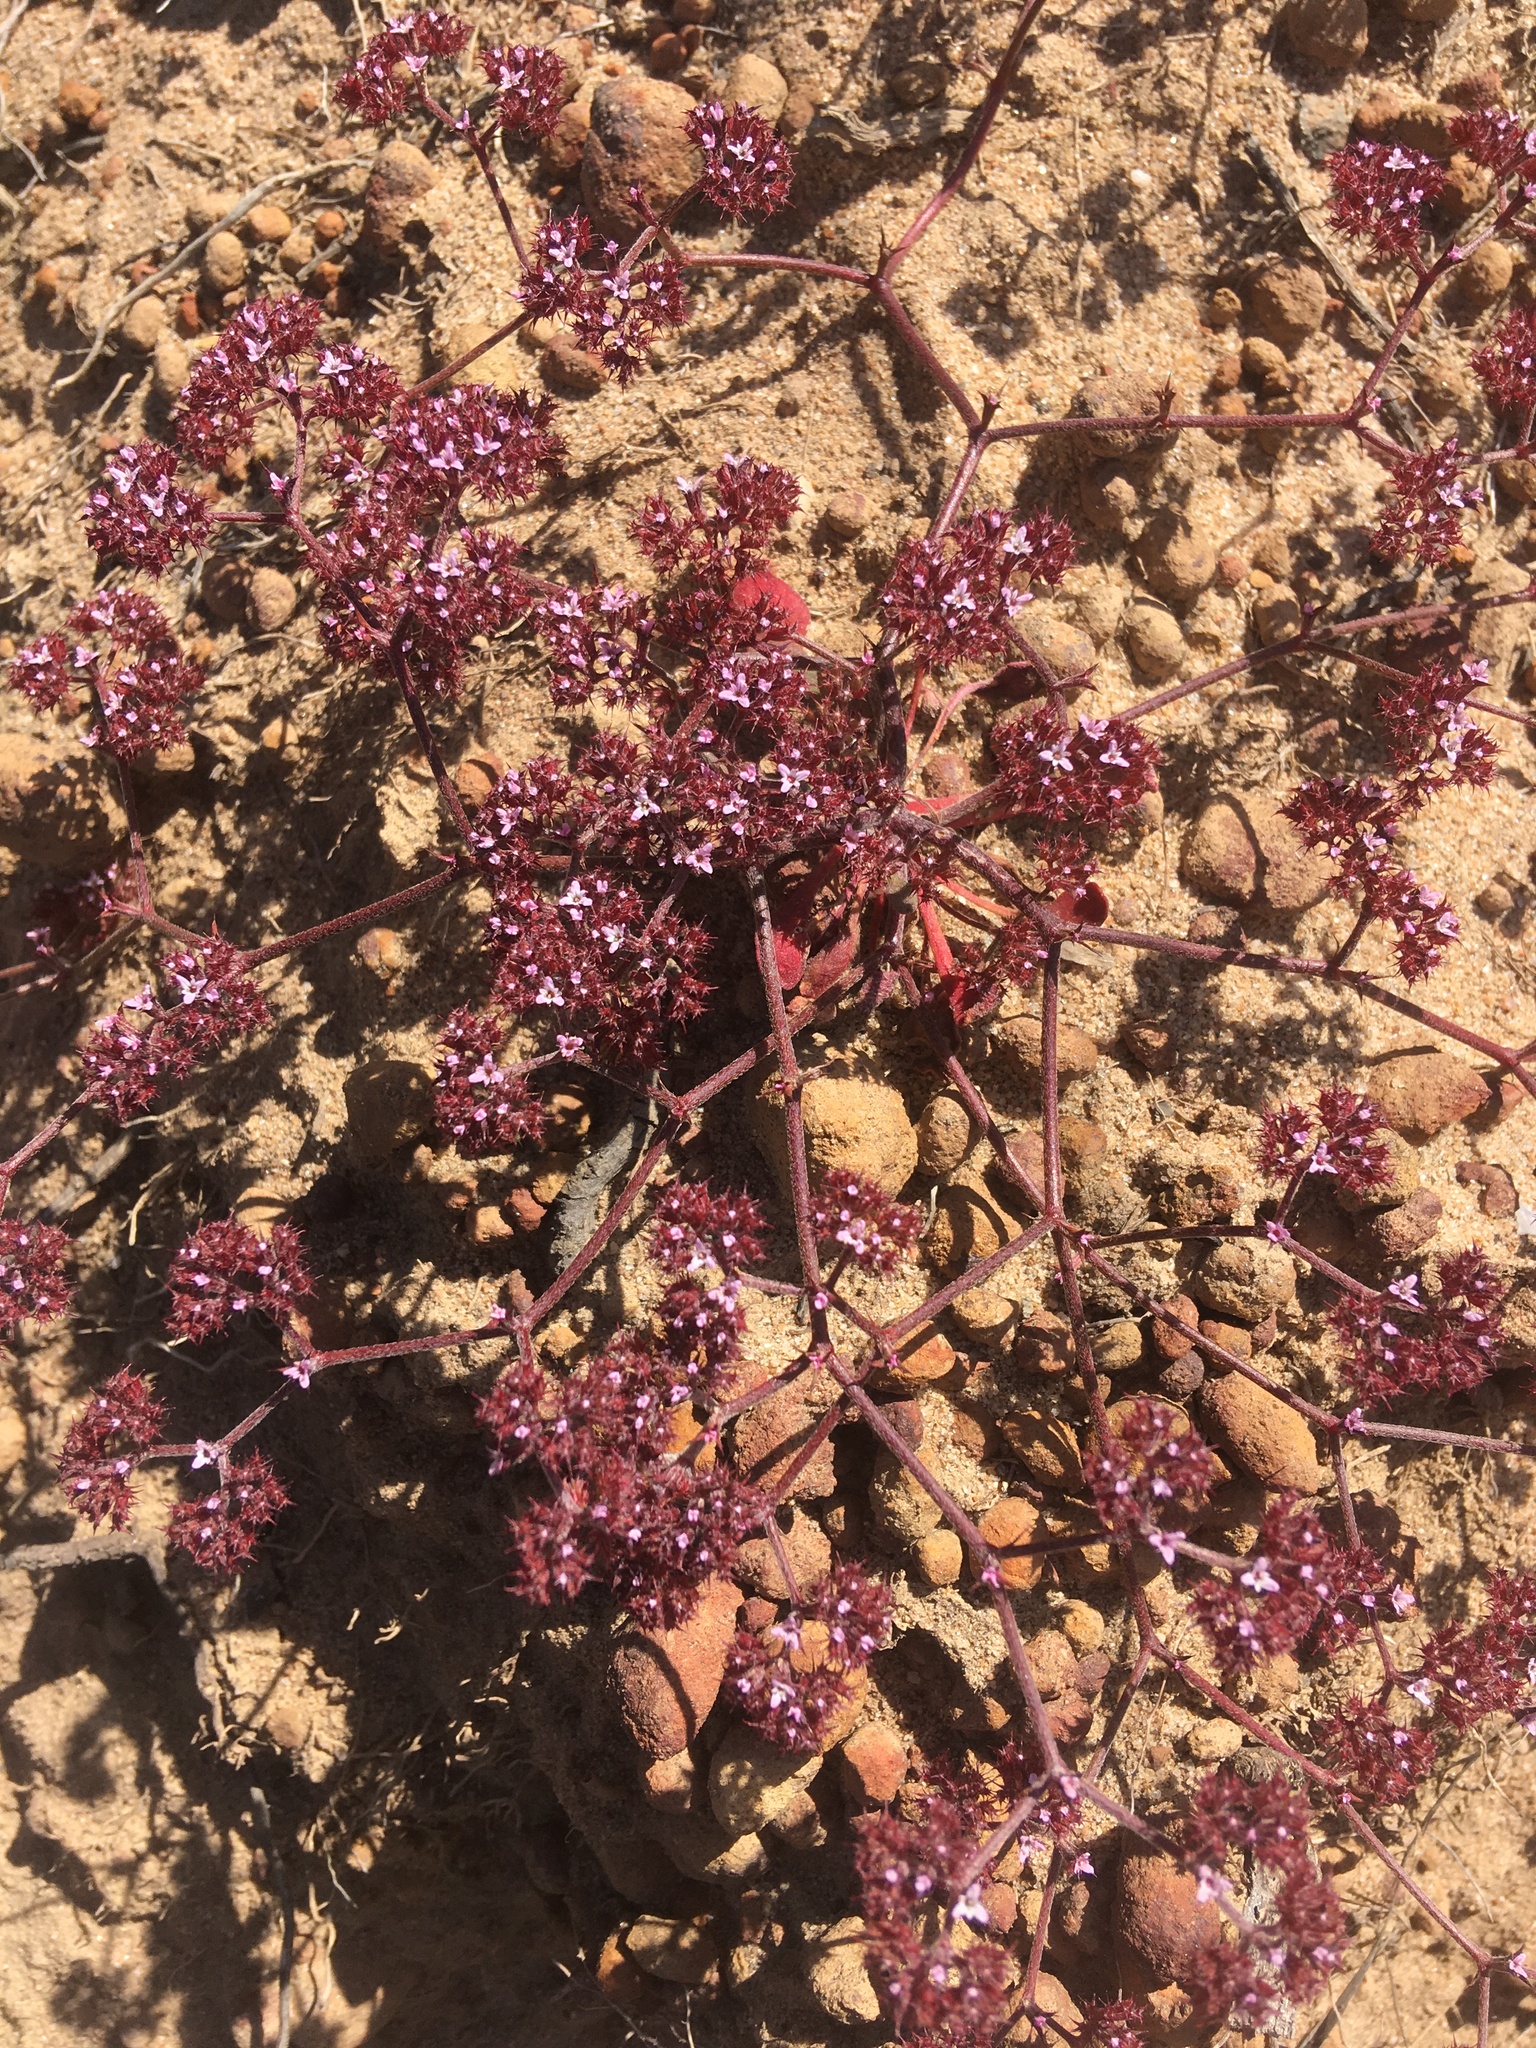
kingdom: Plantae
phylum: Tracheophyta
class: Magnoliopsida
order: Caryophyllales
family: Polygonaceae
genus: Chorizanthe
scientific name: Chorizanthe staticoides
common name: Turkish rugging
